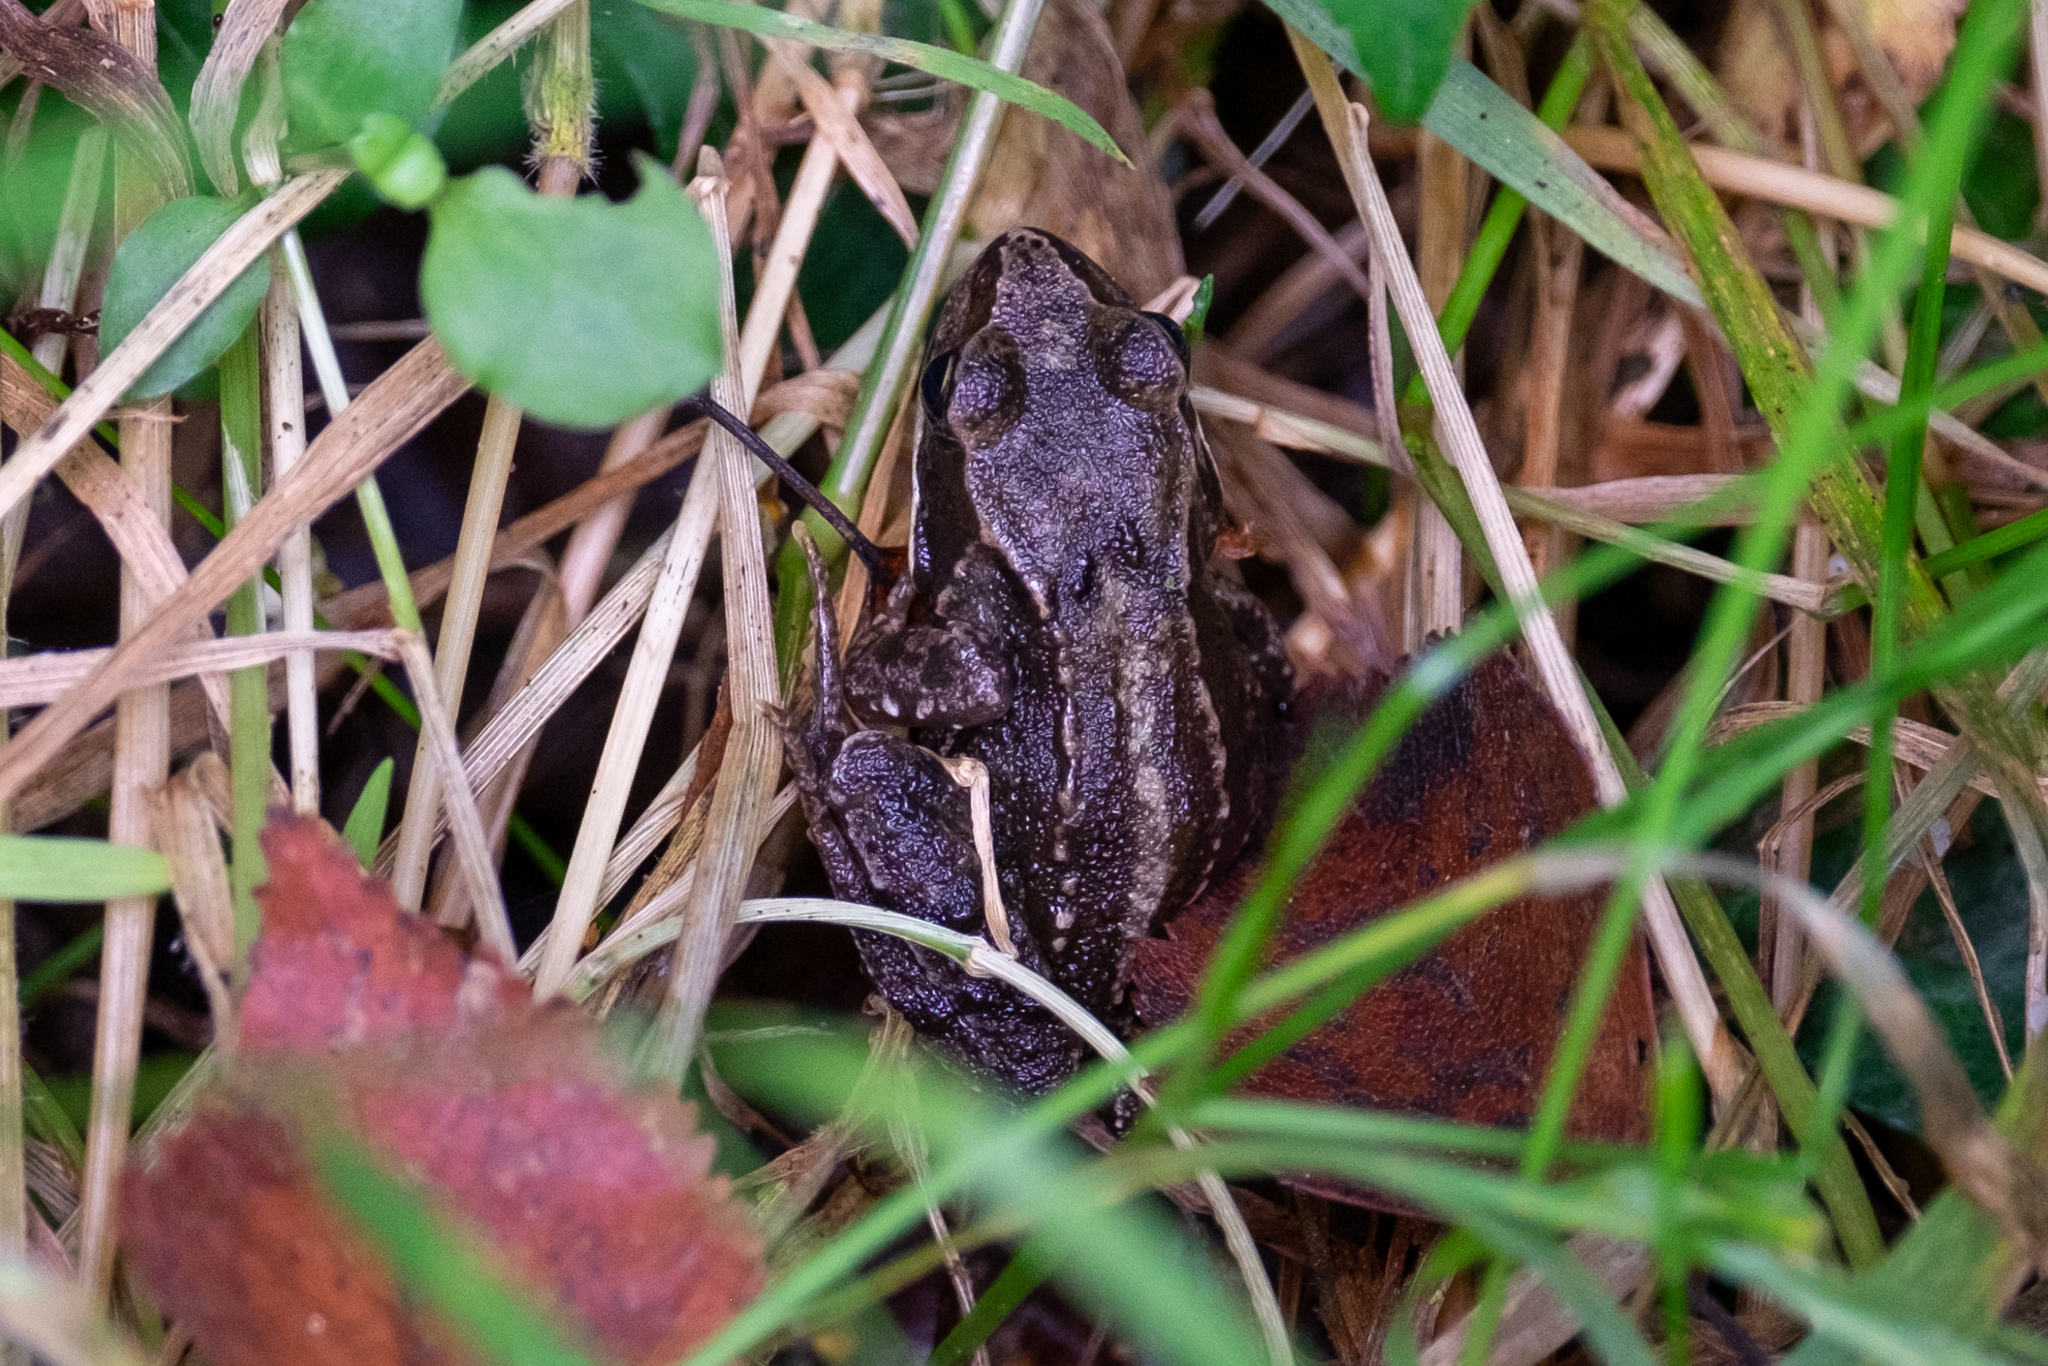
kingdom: Animalia
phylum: Chordata
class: Amphibia
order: Anura
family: Ranidae
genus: Rana
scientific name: Rana temporaria
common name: Common frog
